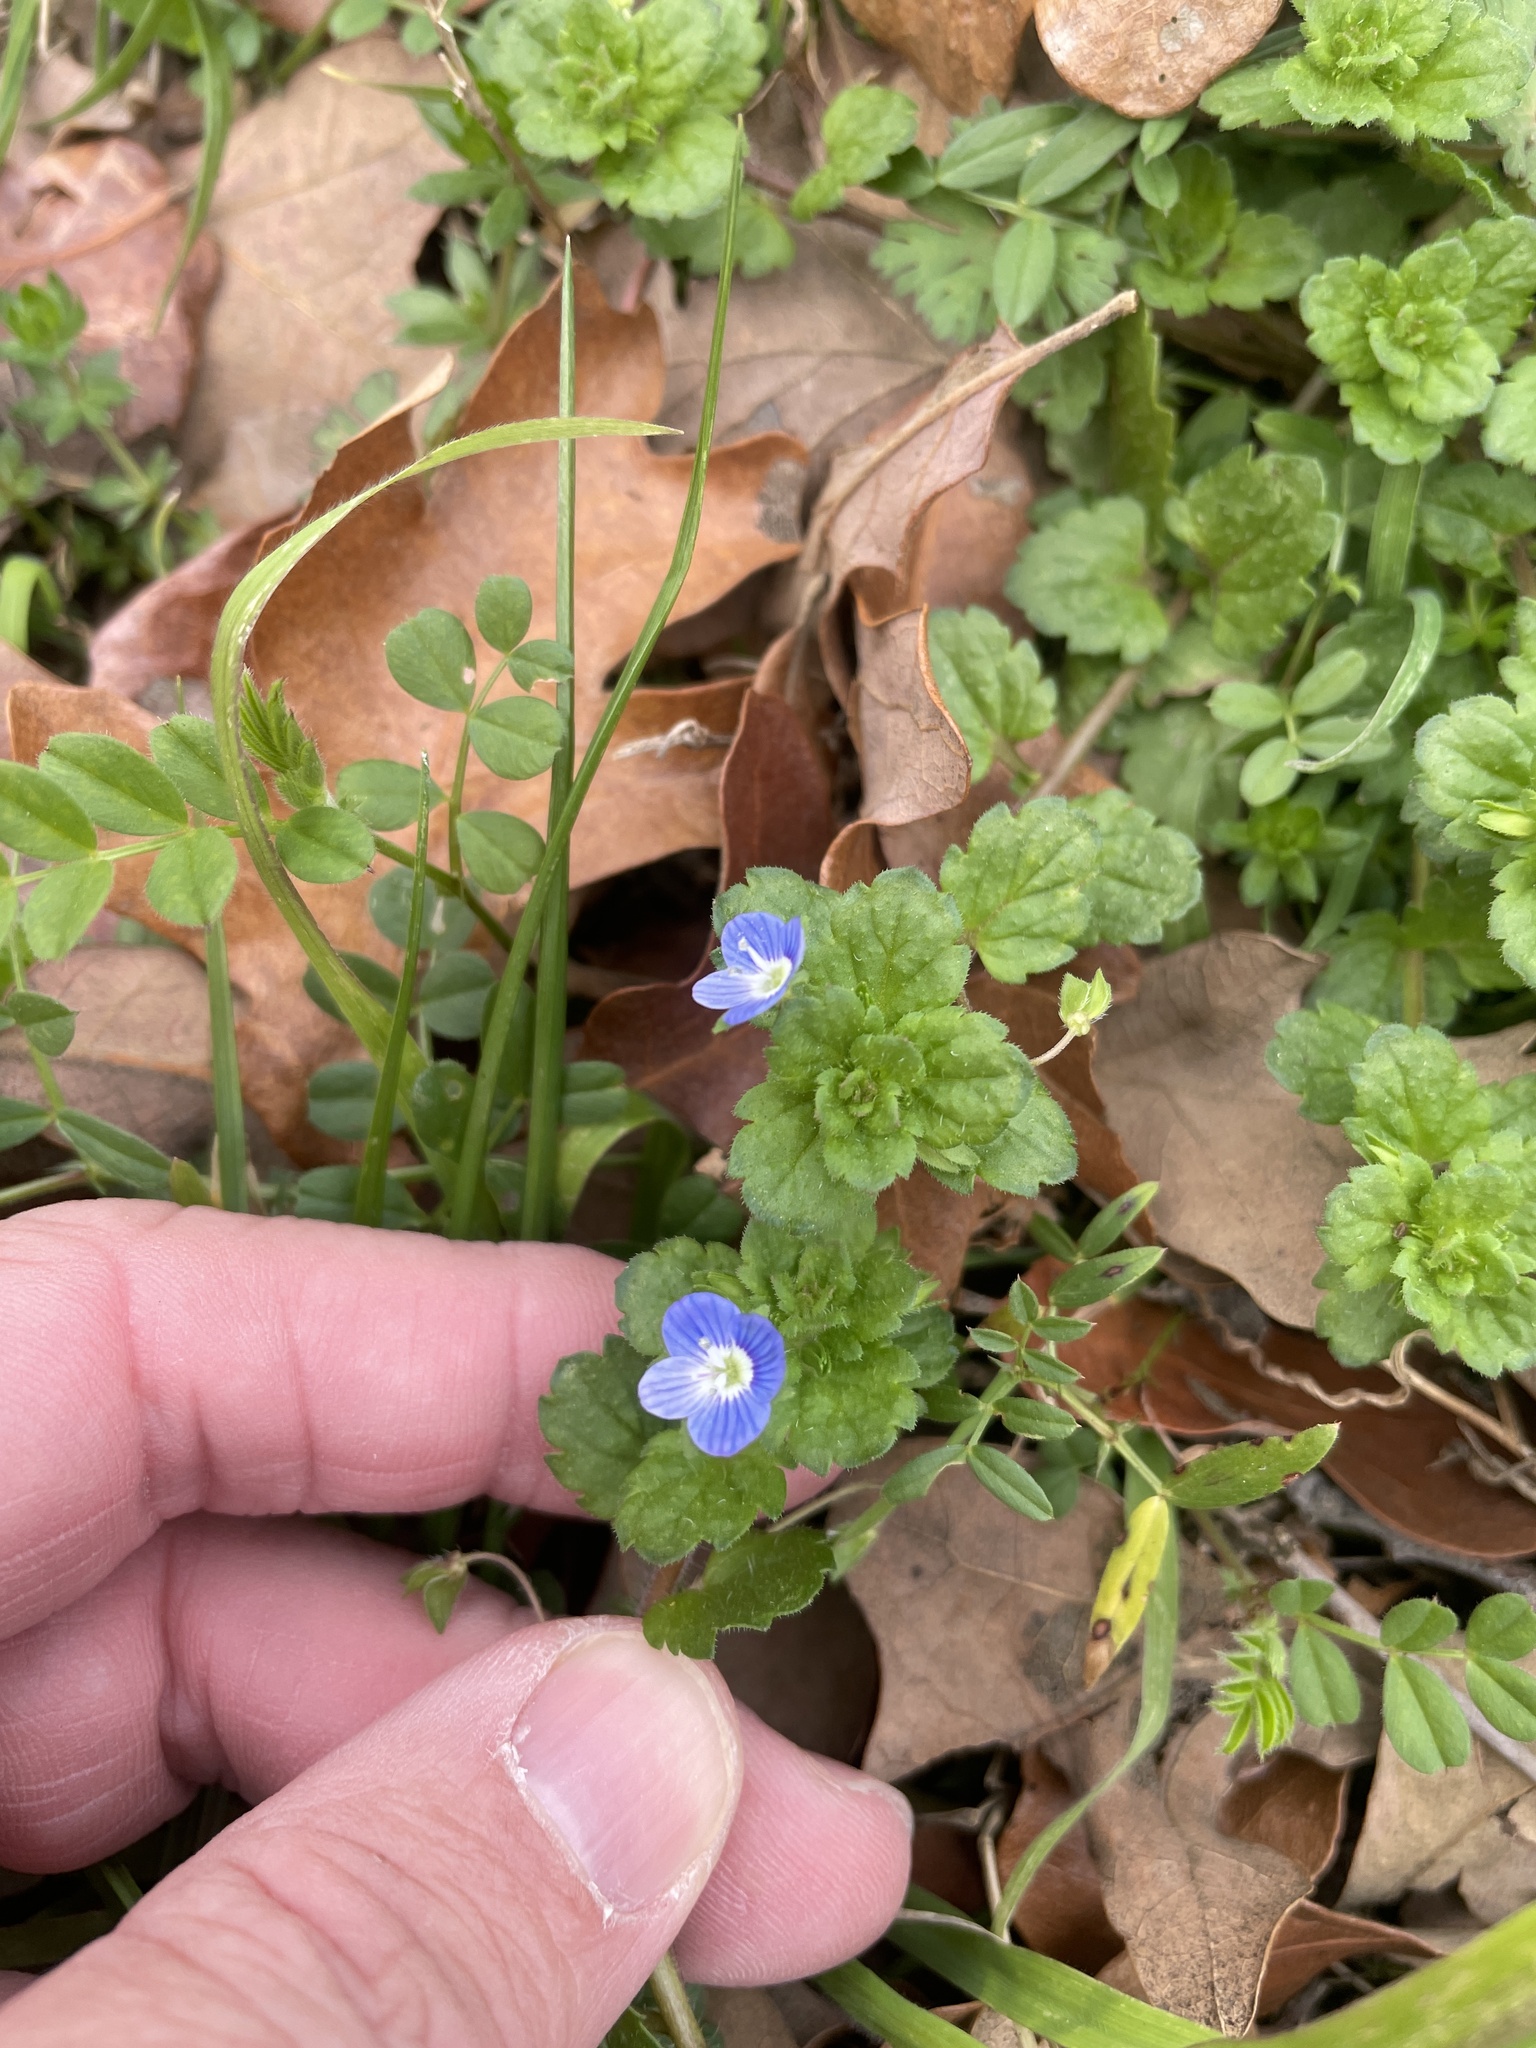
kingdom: Plantae
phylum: Tracheophyta
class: Magnoliopsida
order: Lamiales
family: Plantaginaceae
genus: Veronica
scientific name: Veronica persica
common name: Common field-speedwell
